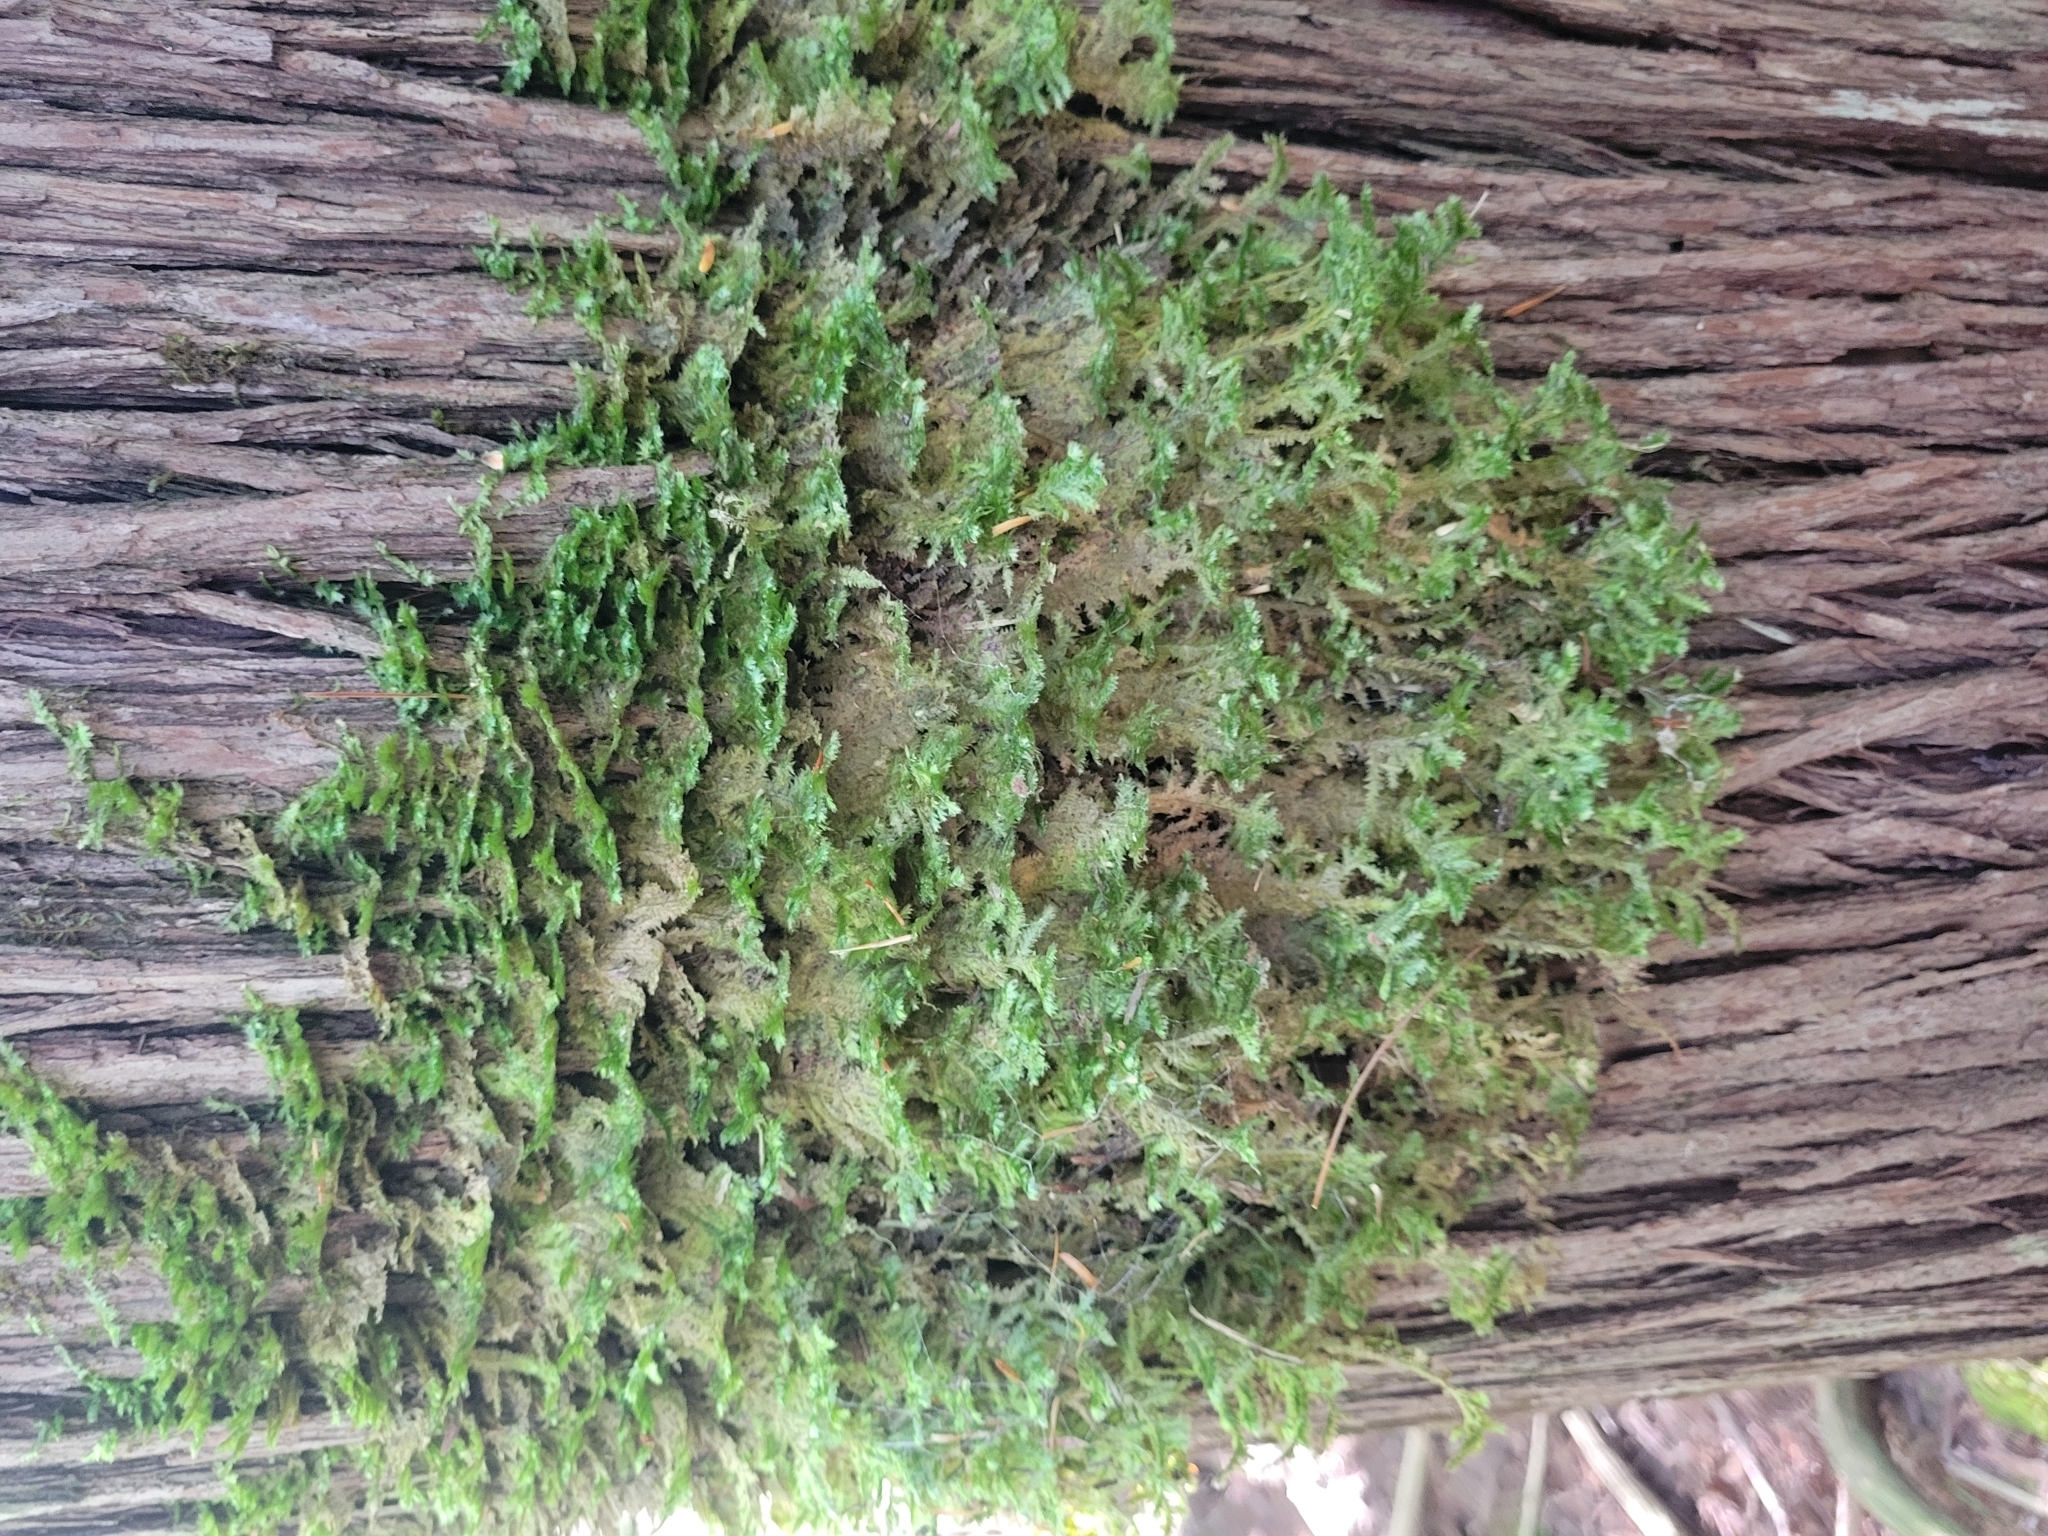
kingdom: Plantae
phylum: Bryophyta
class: Bryopsida
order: Hypnales
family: Neckeraceae
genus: Neckera
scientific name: Neckera pennata
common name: Feathery neckera
